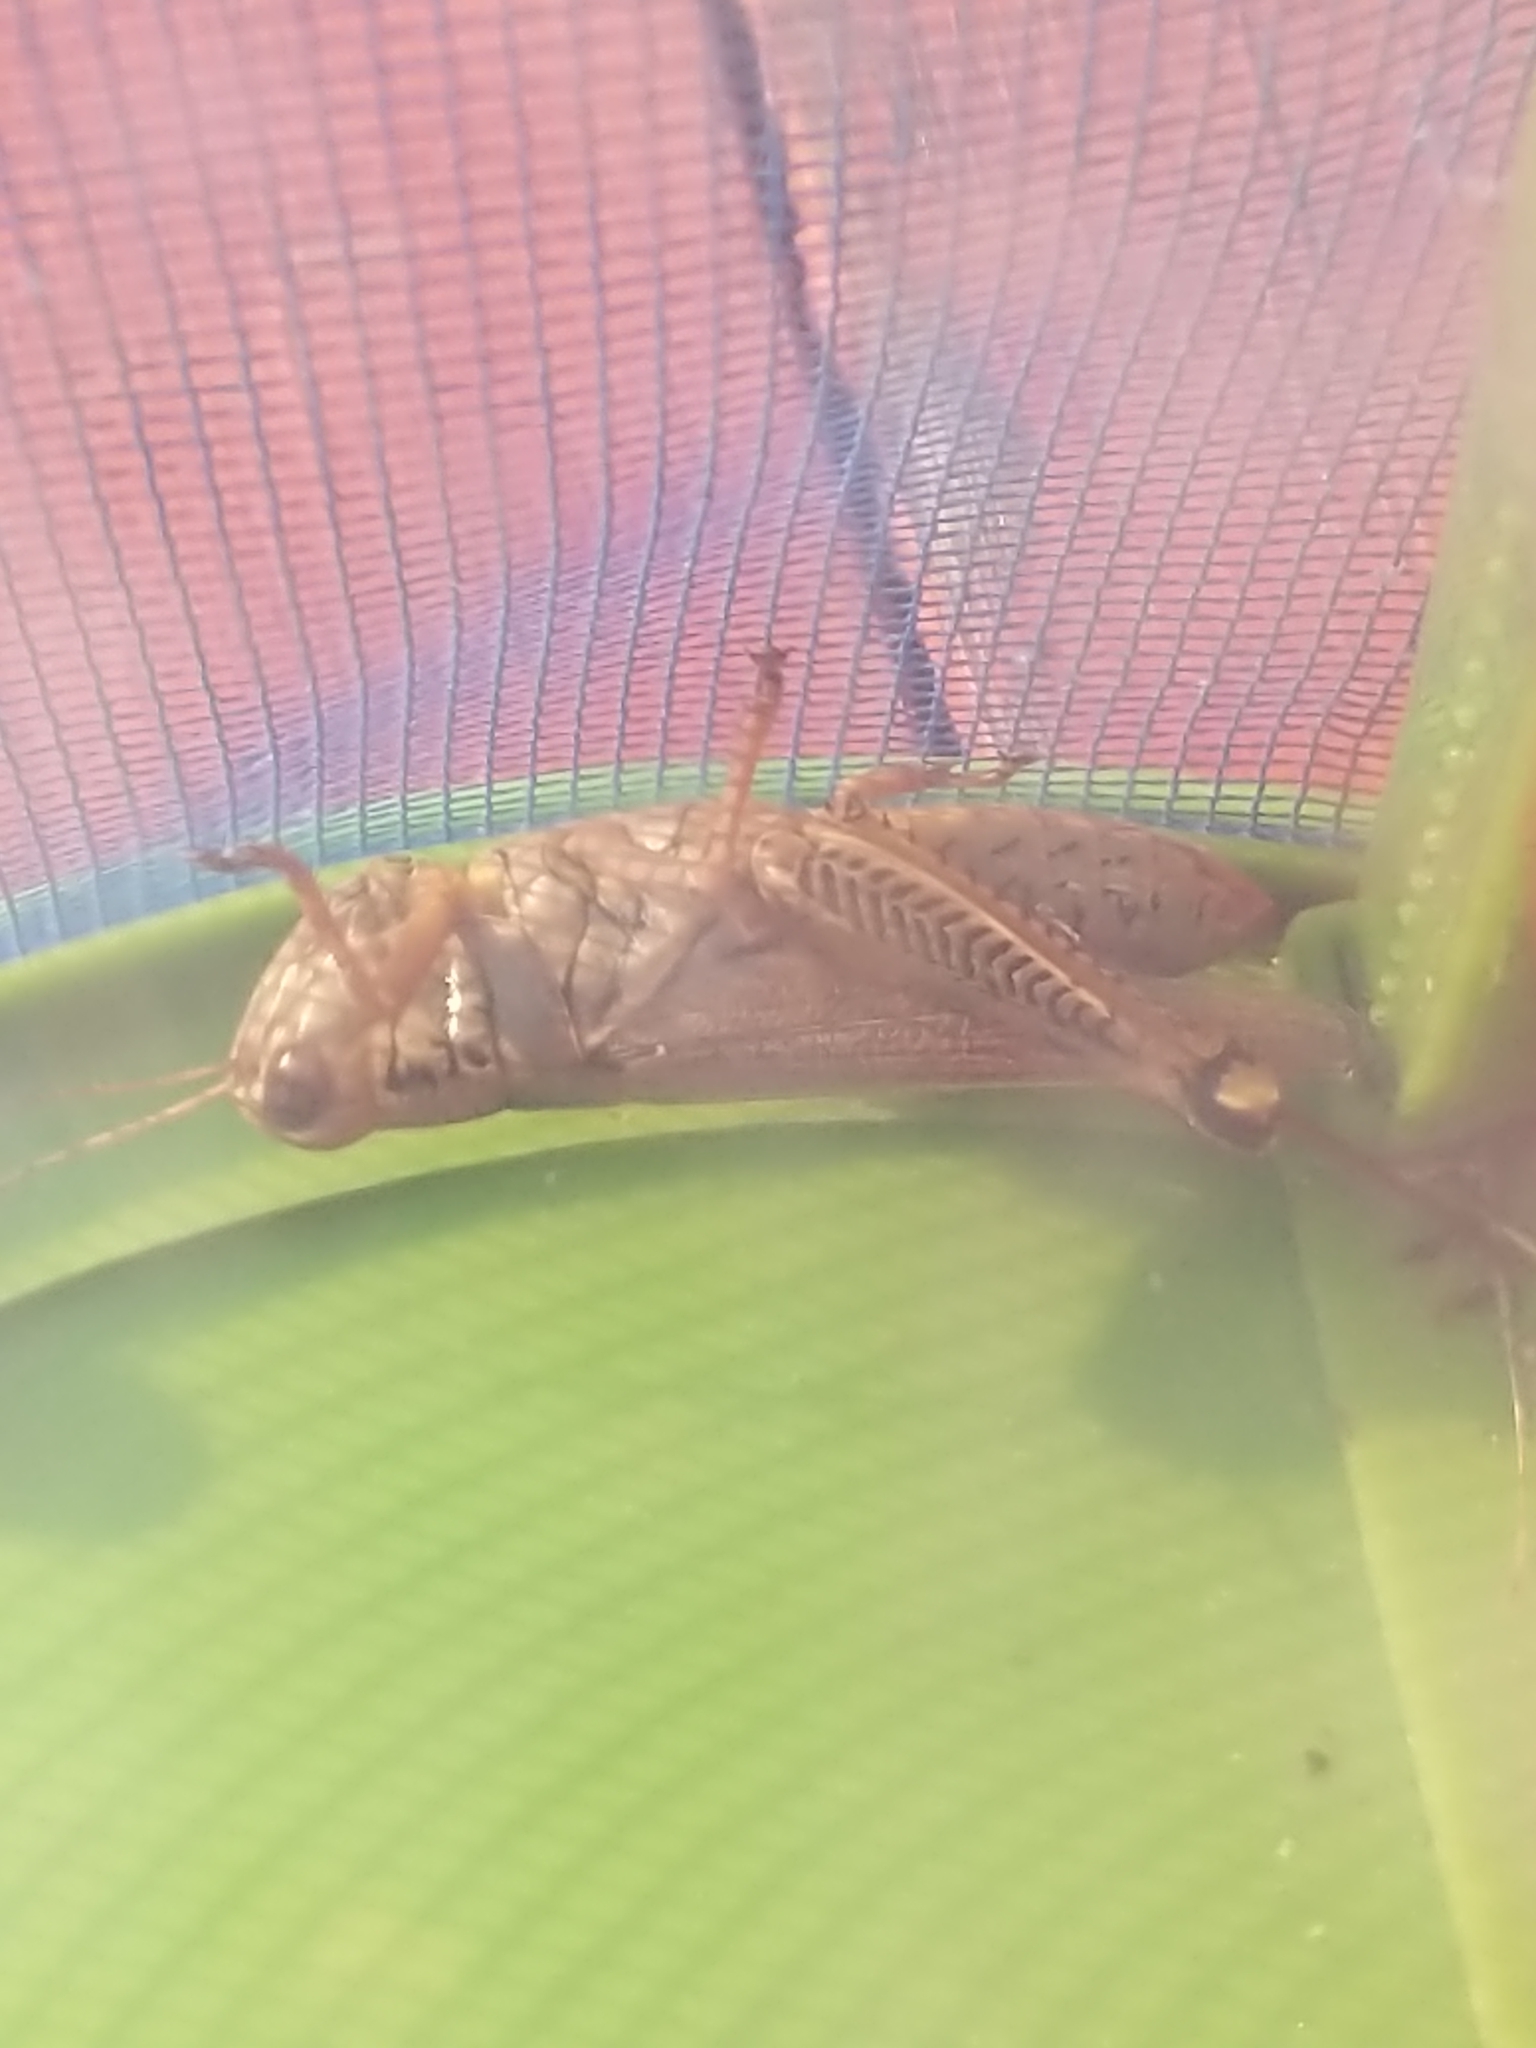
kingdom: Animalia
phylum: Arthropoda
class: Insecta
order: Orthoptera
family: Acrididae
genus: Melanoplus
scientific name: Melanoplus differentialis
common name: Differential grasshopper
